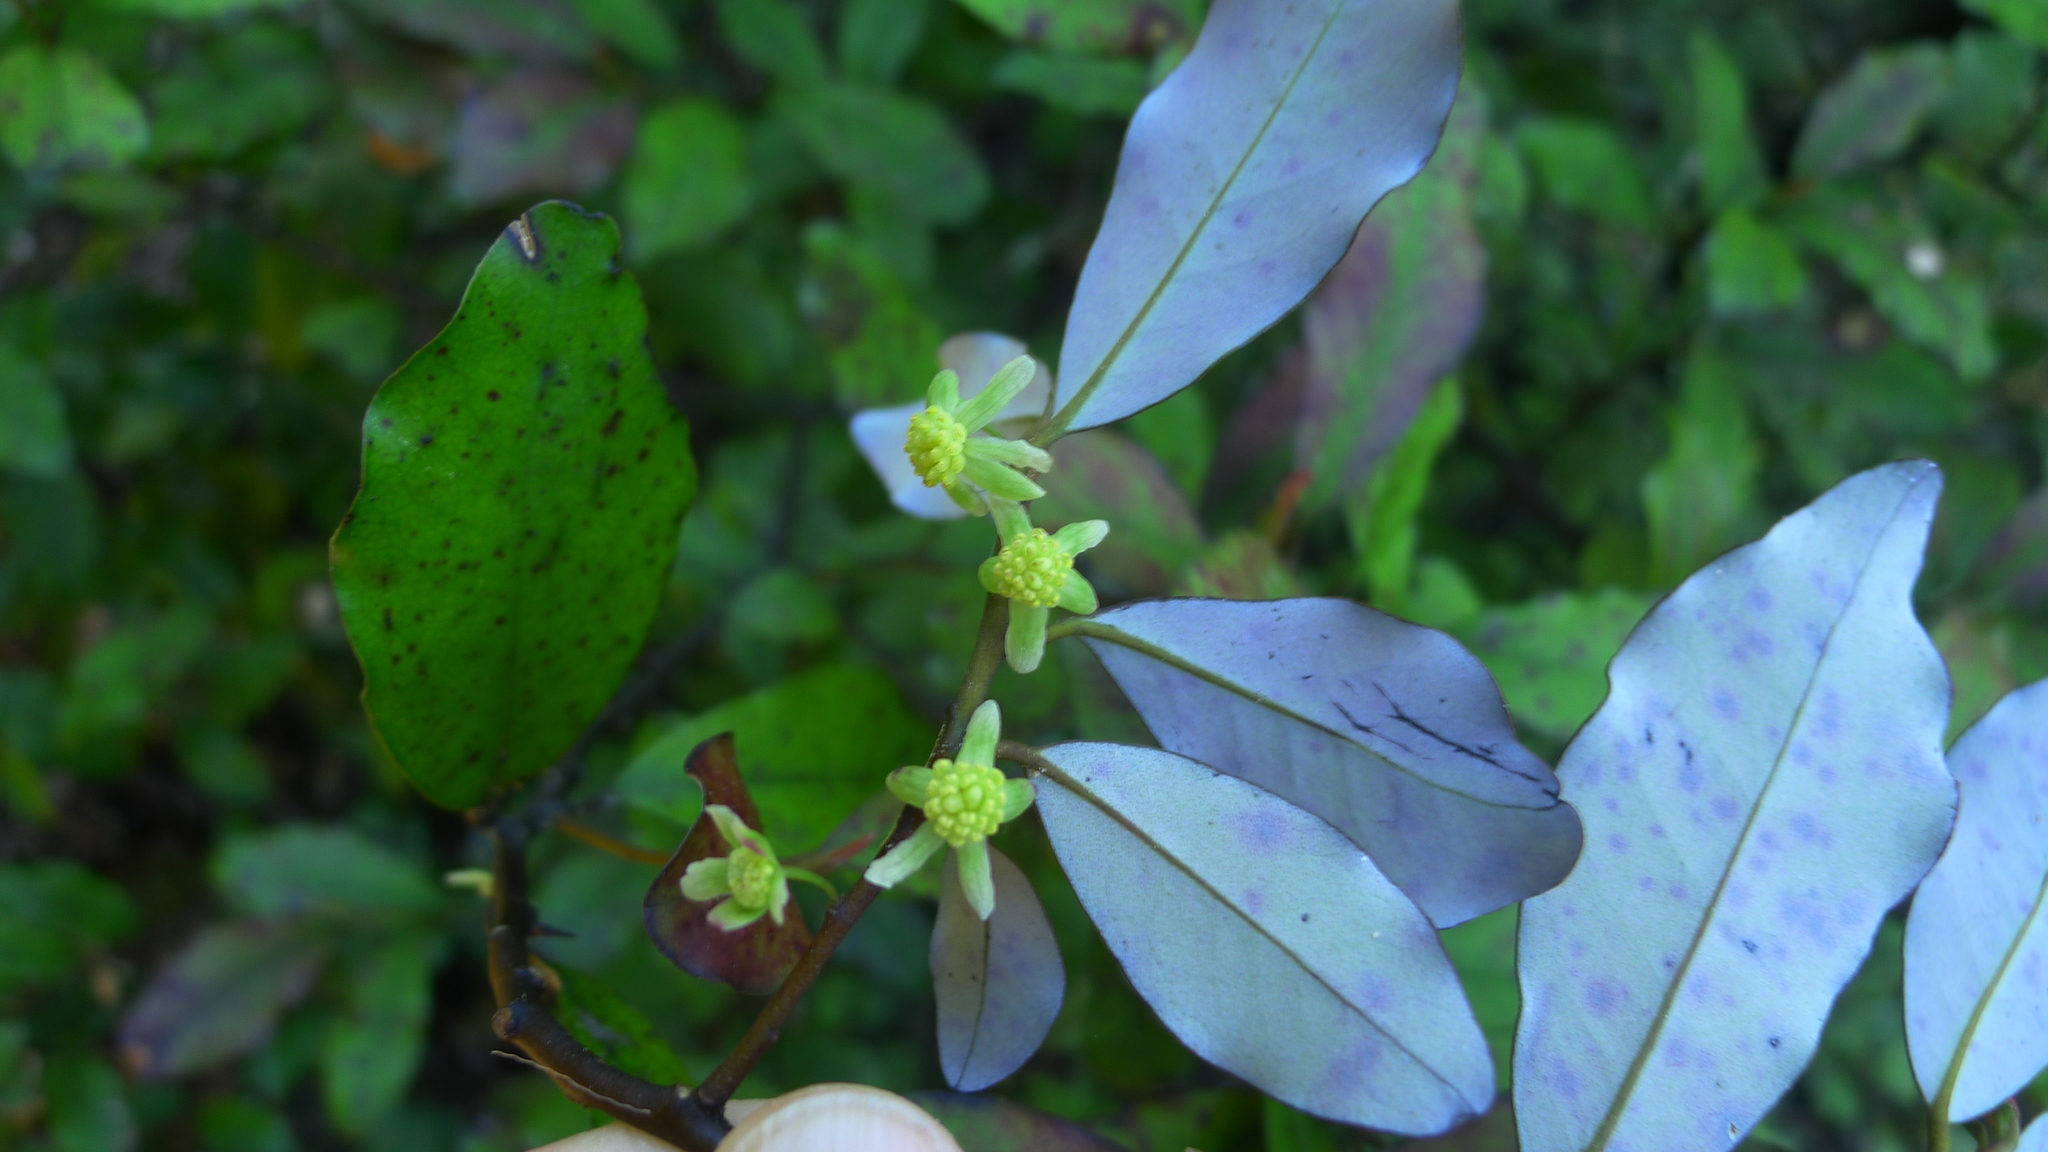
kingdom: Plantae
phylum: Tracheophyta
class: Magnoliopsida
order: Canellales
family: Winteraceae
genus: Pseudowintera
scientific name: Pseudowintera colorata
